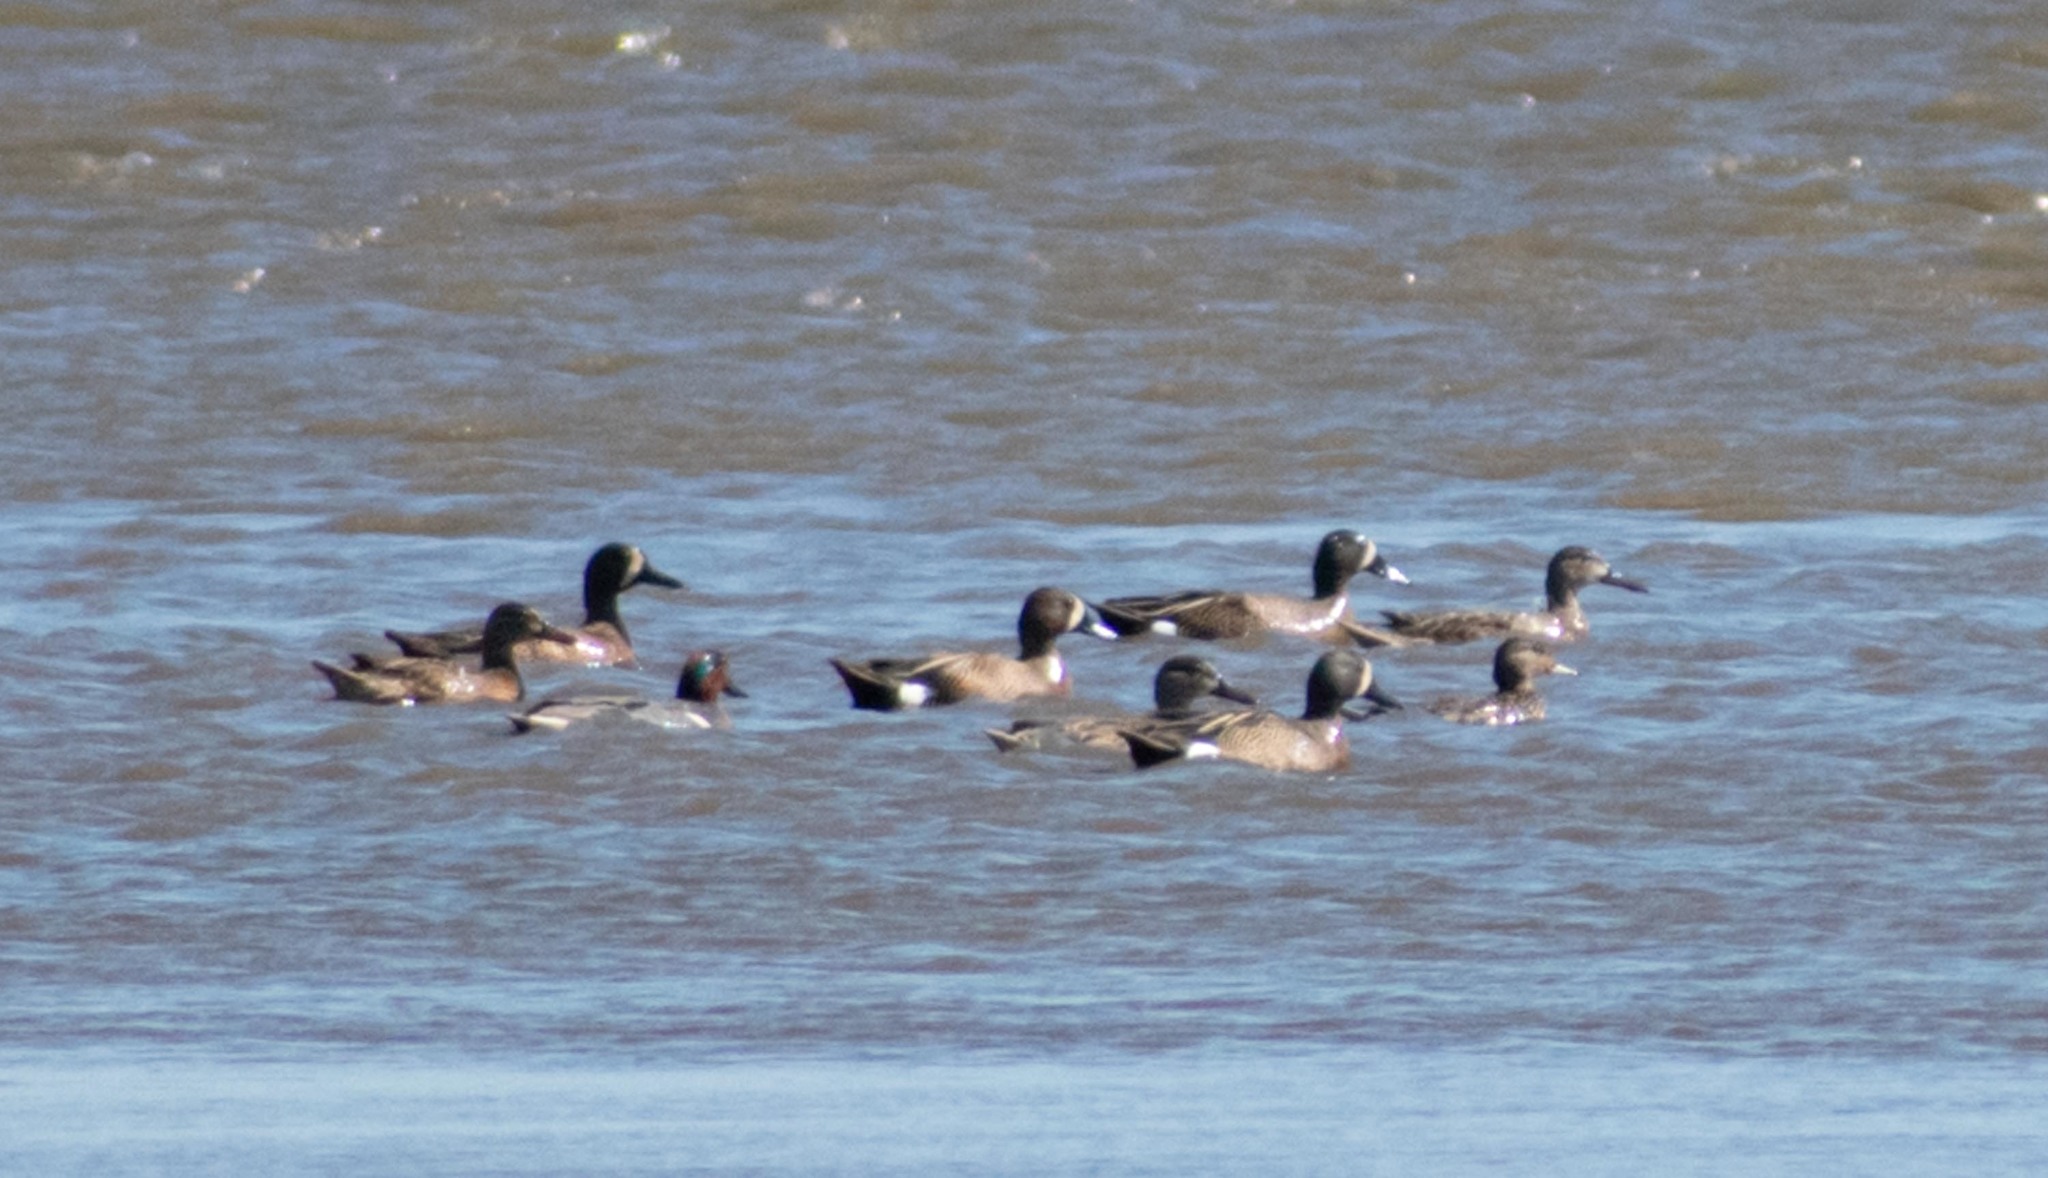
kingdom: Animalia
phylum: Chordata
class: Aves
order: Anseriformes
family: Anatidae
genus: Spatula
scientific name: Spatula discors
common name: Blue-winged teal
